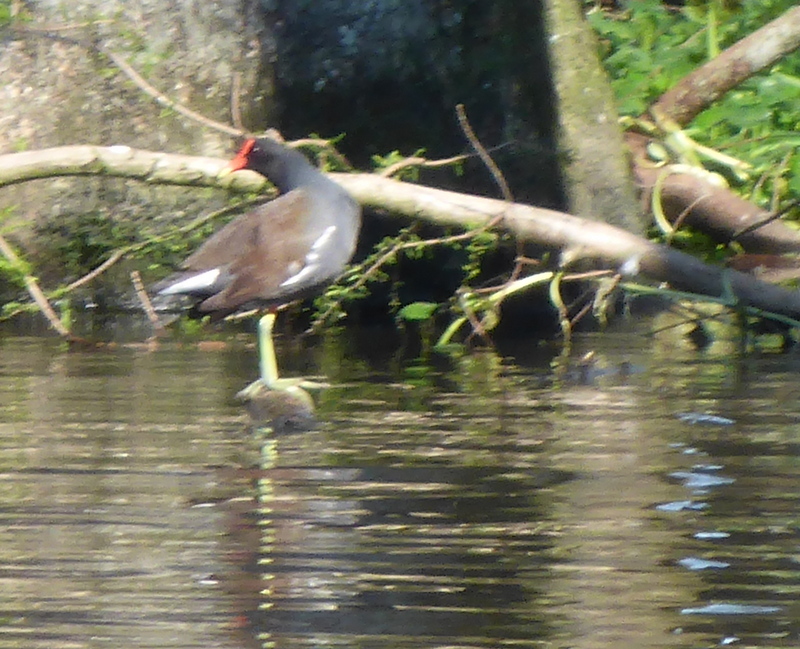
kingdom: Animalia
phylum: Chordata
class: Aves
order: Gruiformes
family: Rallidae
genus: Gallinula
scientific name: Gallinula chloropus
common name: Common moorhen
